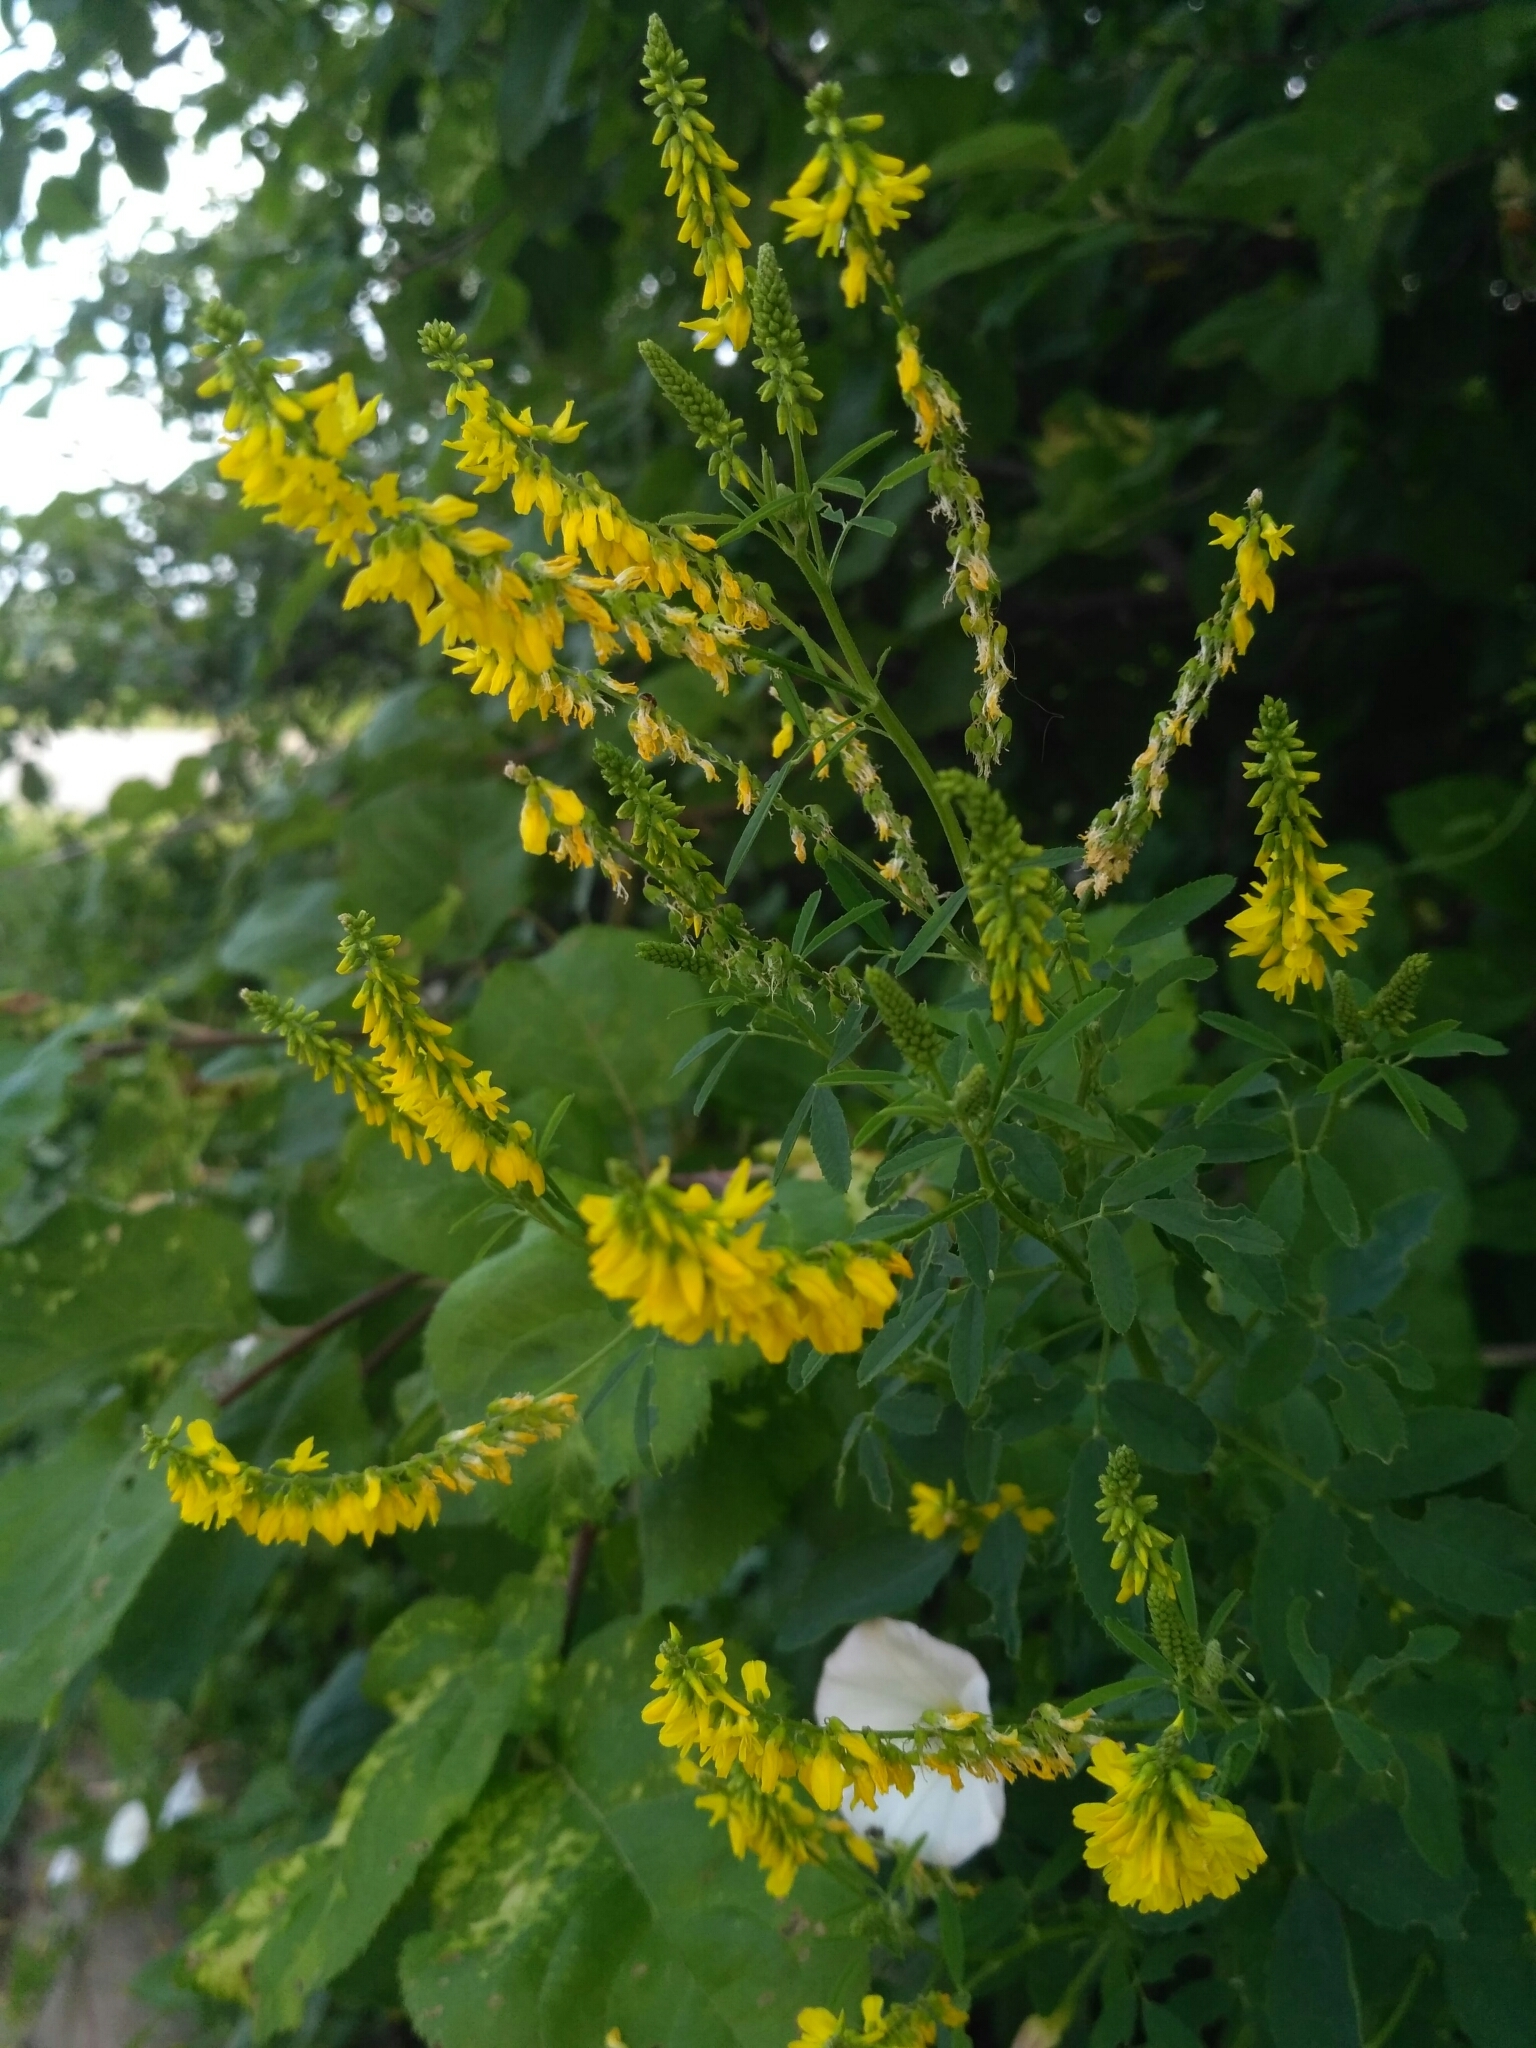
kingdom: Plantae
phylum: Tracheophyta
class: Magnoliopsida
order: Fabales
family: Fabaceae
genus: Melilotus
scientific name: Melilotus officinalis
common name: Sweetclover
